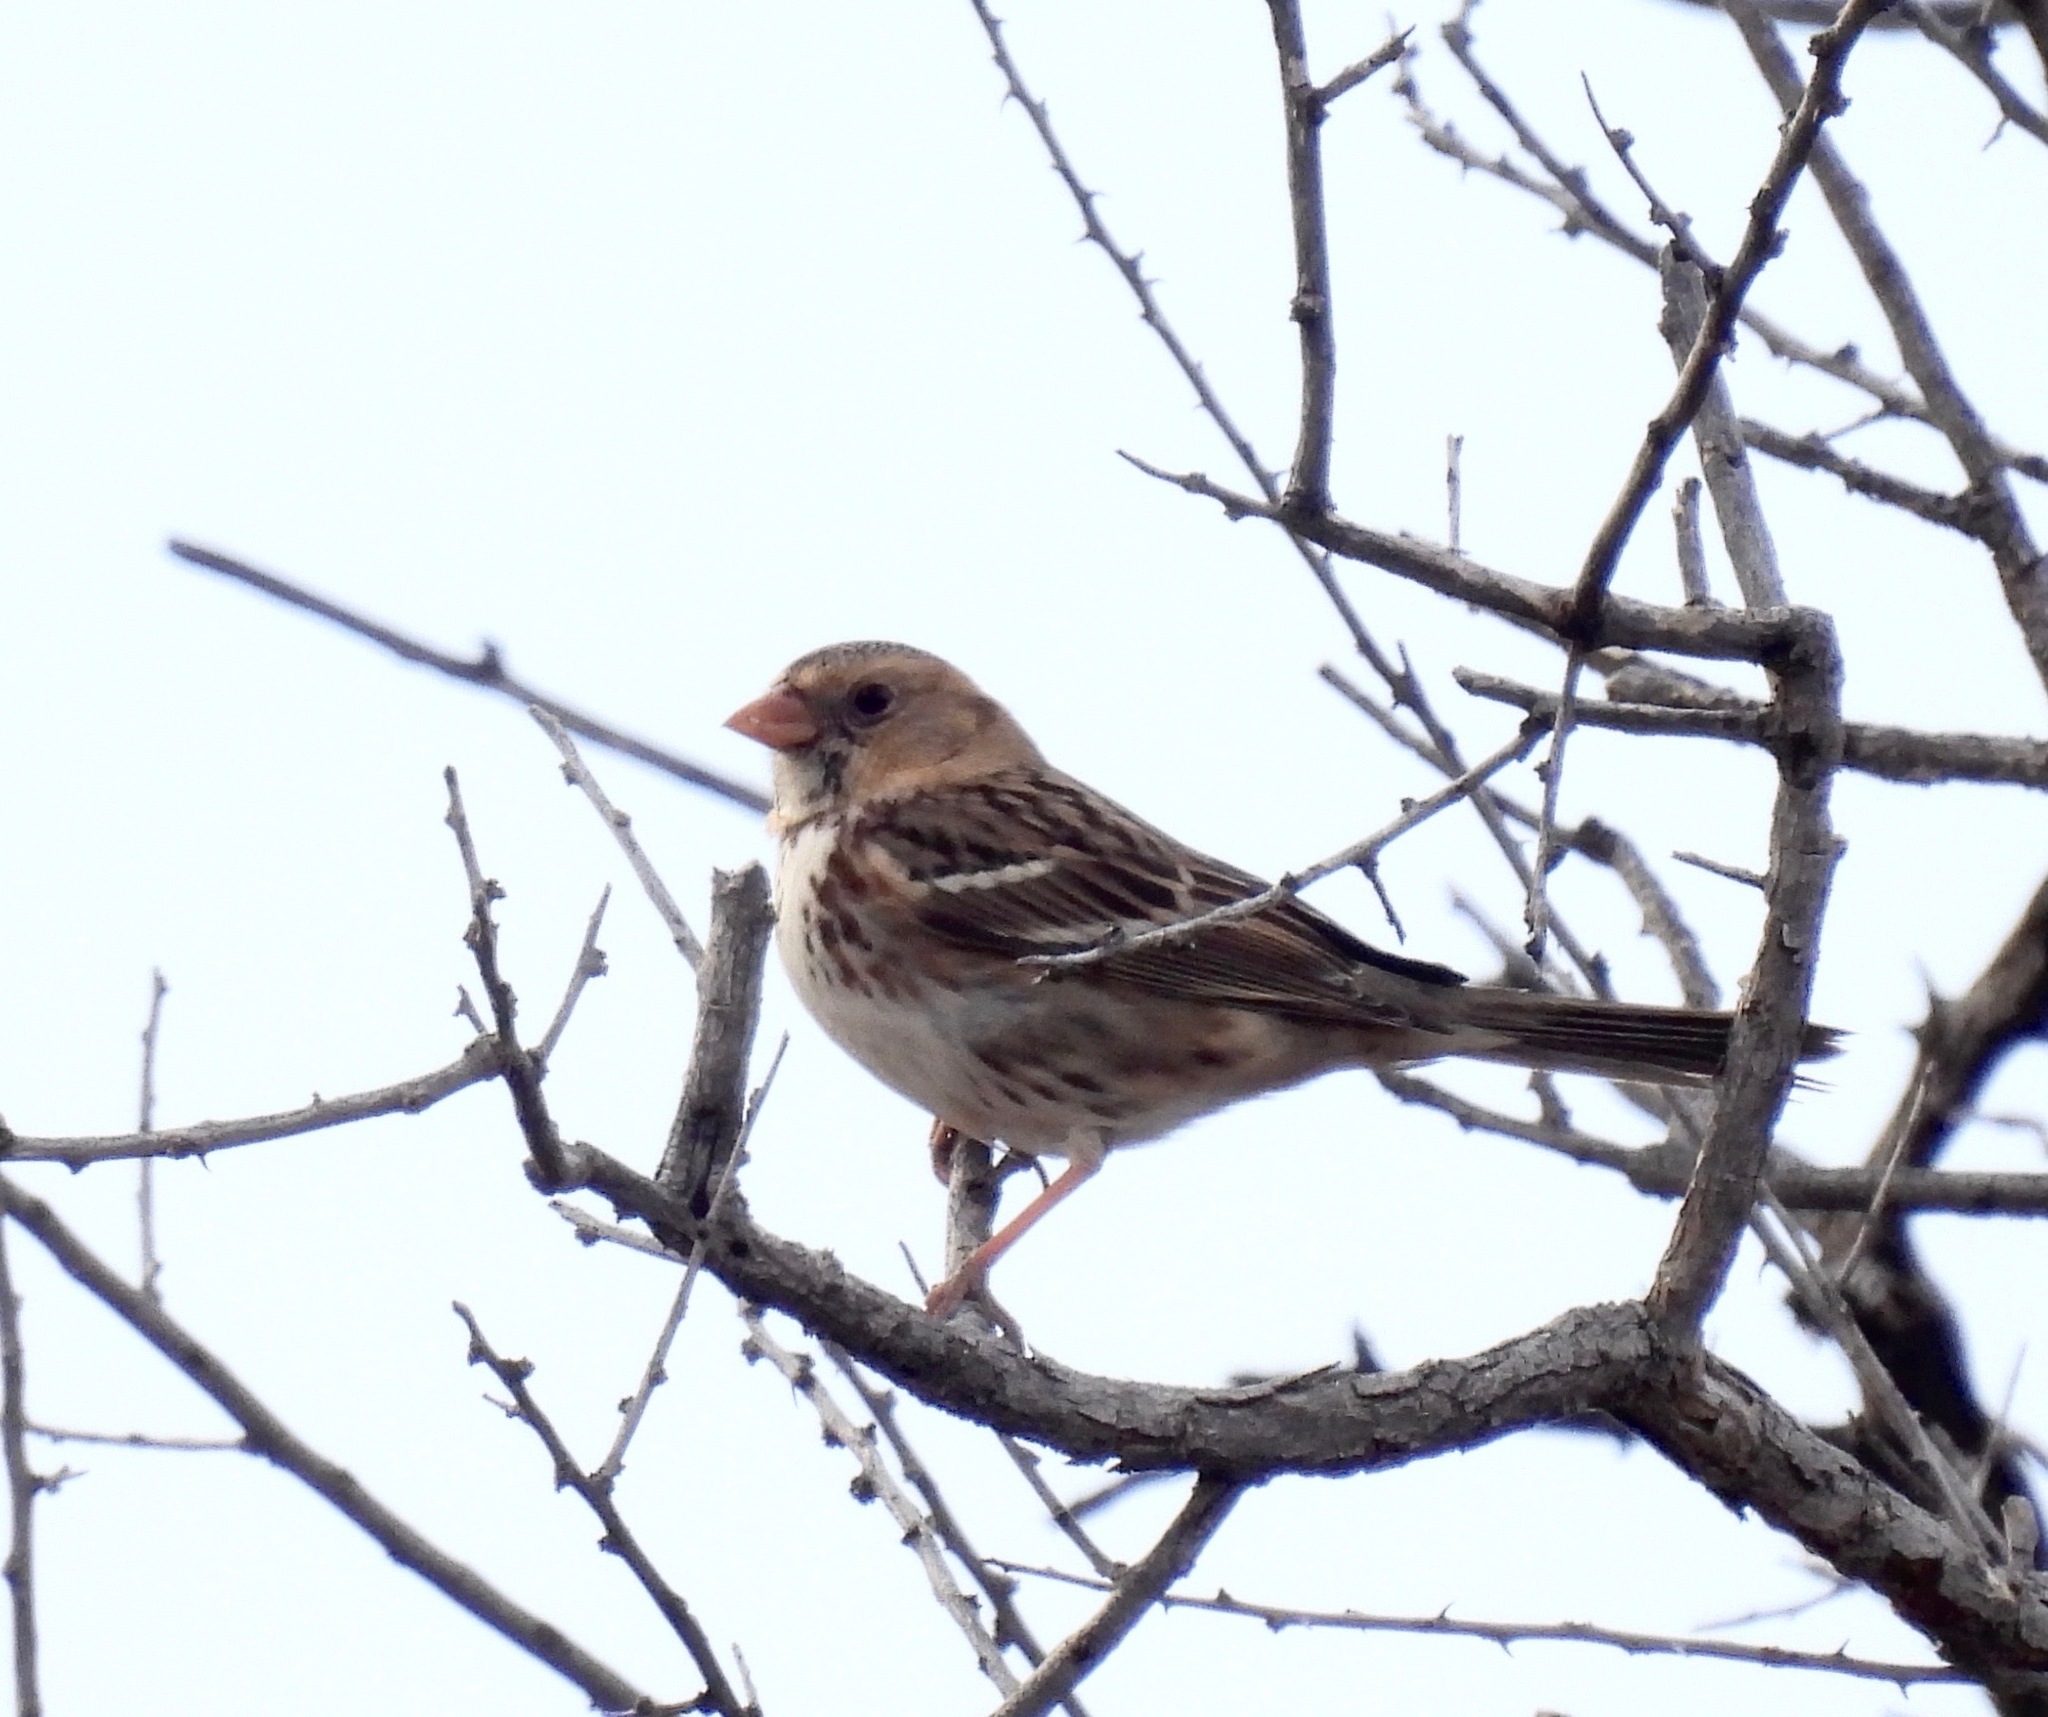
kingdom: Animalia
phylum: Chordata
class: Aves
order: Passeriformes
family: Passerellidae
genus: Zonotrichia
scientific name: Zonotrichia querula
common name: Harris's sparrow
